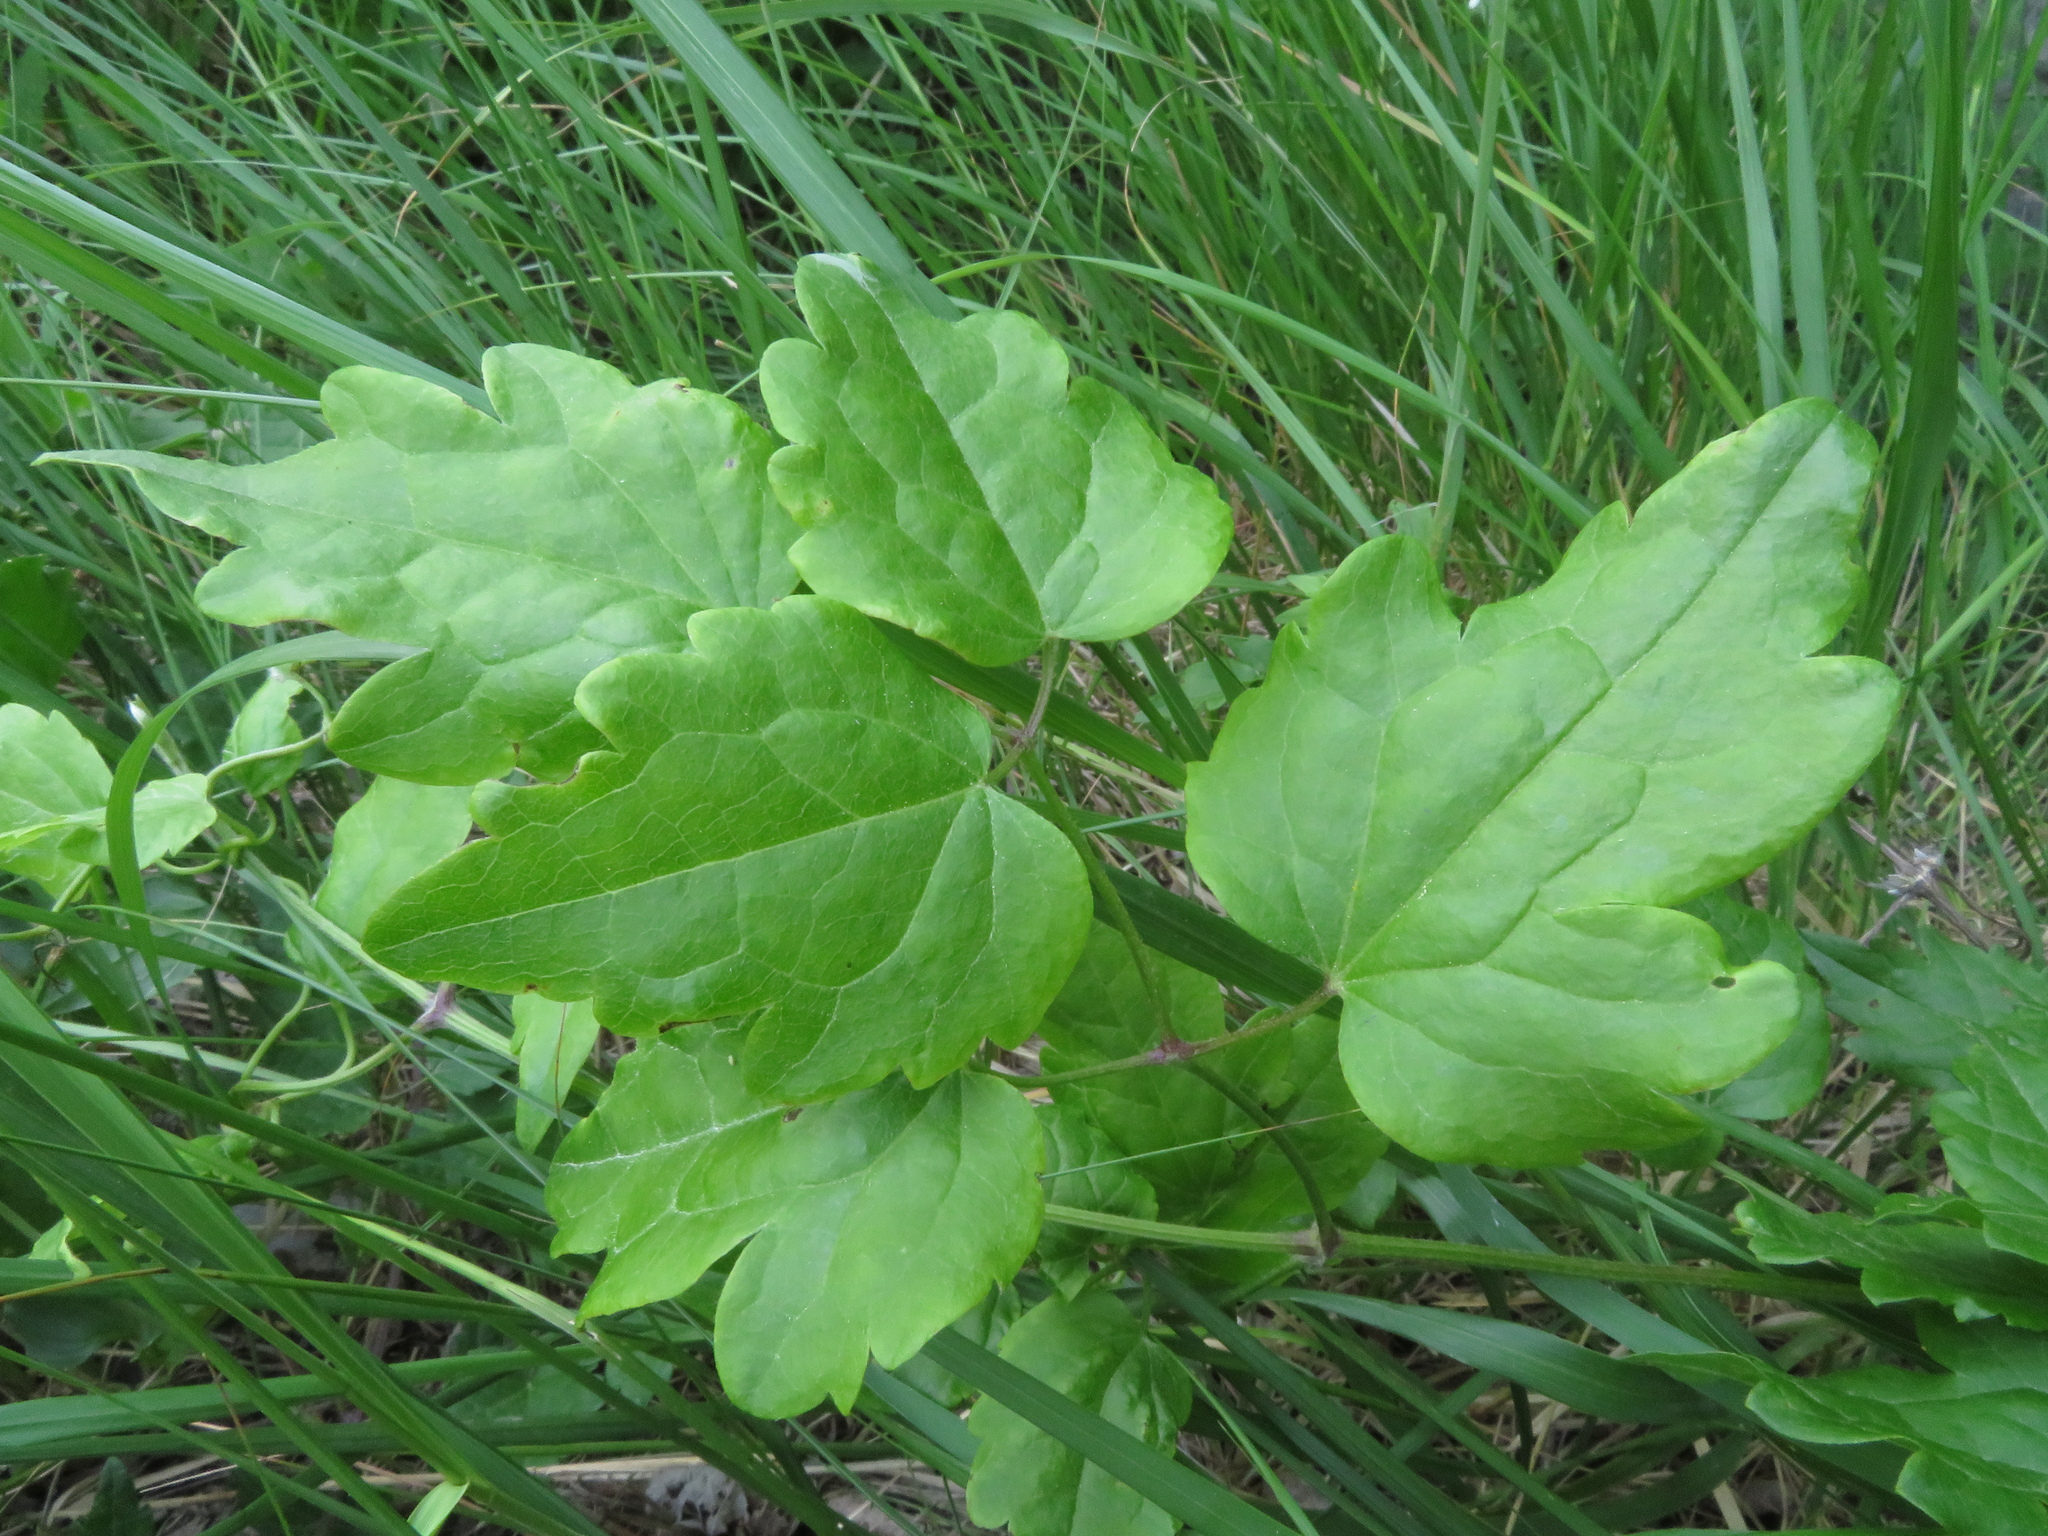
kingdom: Plantae
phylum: Tracheophyta
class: Magnoliopsida
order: Ranunculales
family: Ranunculaceae
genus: Clematis
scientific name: Clematis vitalba
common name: Evergreen clematis
